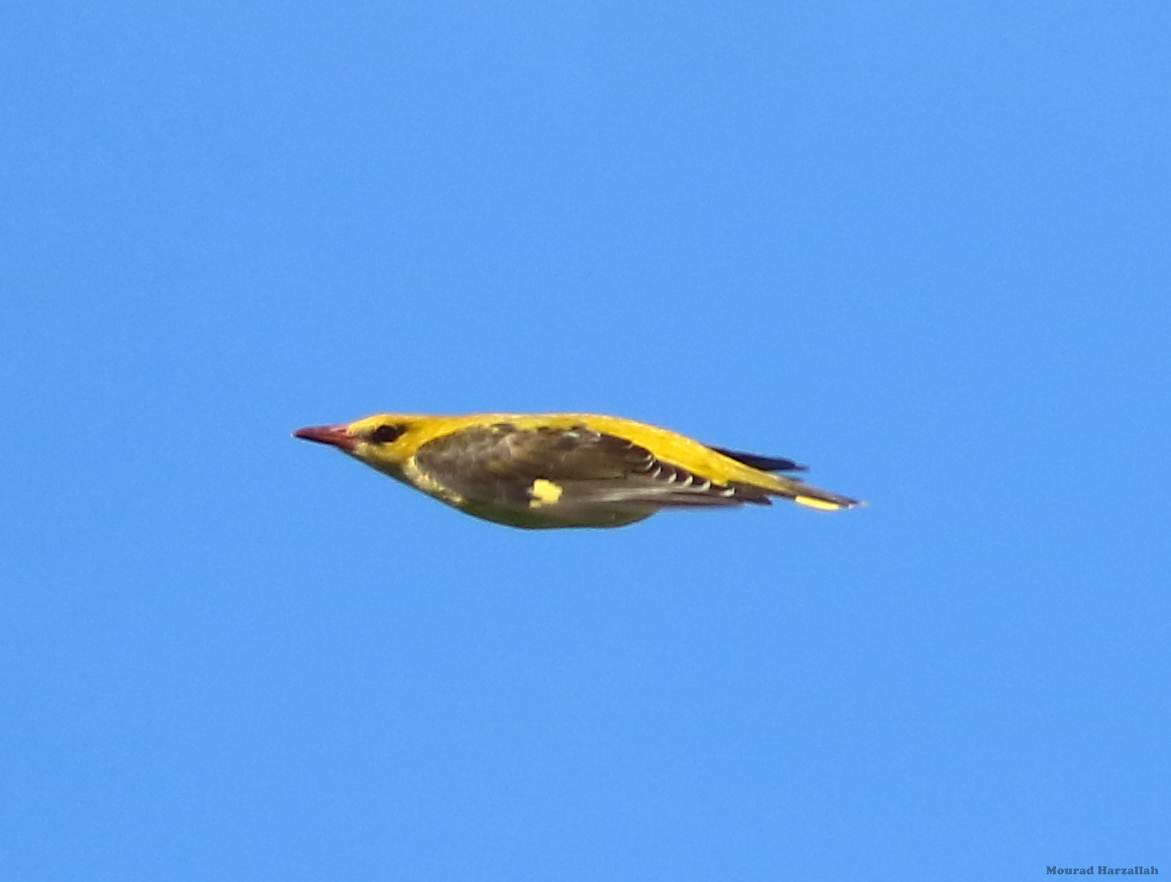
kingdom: Animalia
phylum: Chordata
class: Aves
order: Passeriformes
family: Oriolidae
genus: Oriolus
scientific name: Oriolus oriolus
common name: Eurasian golden oriole
